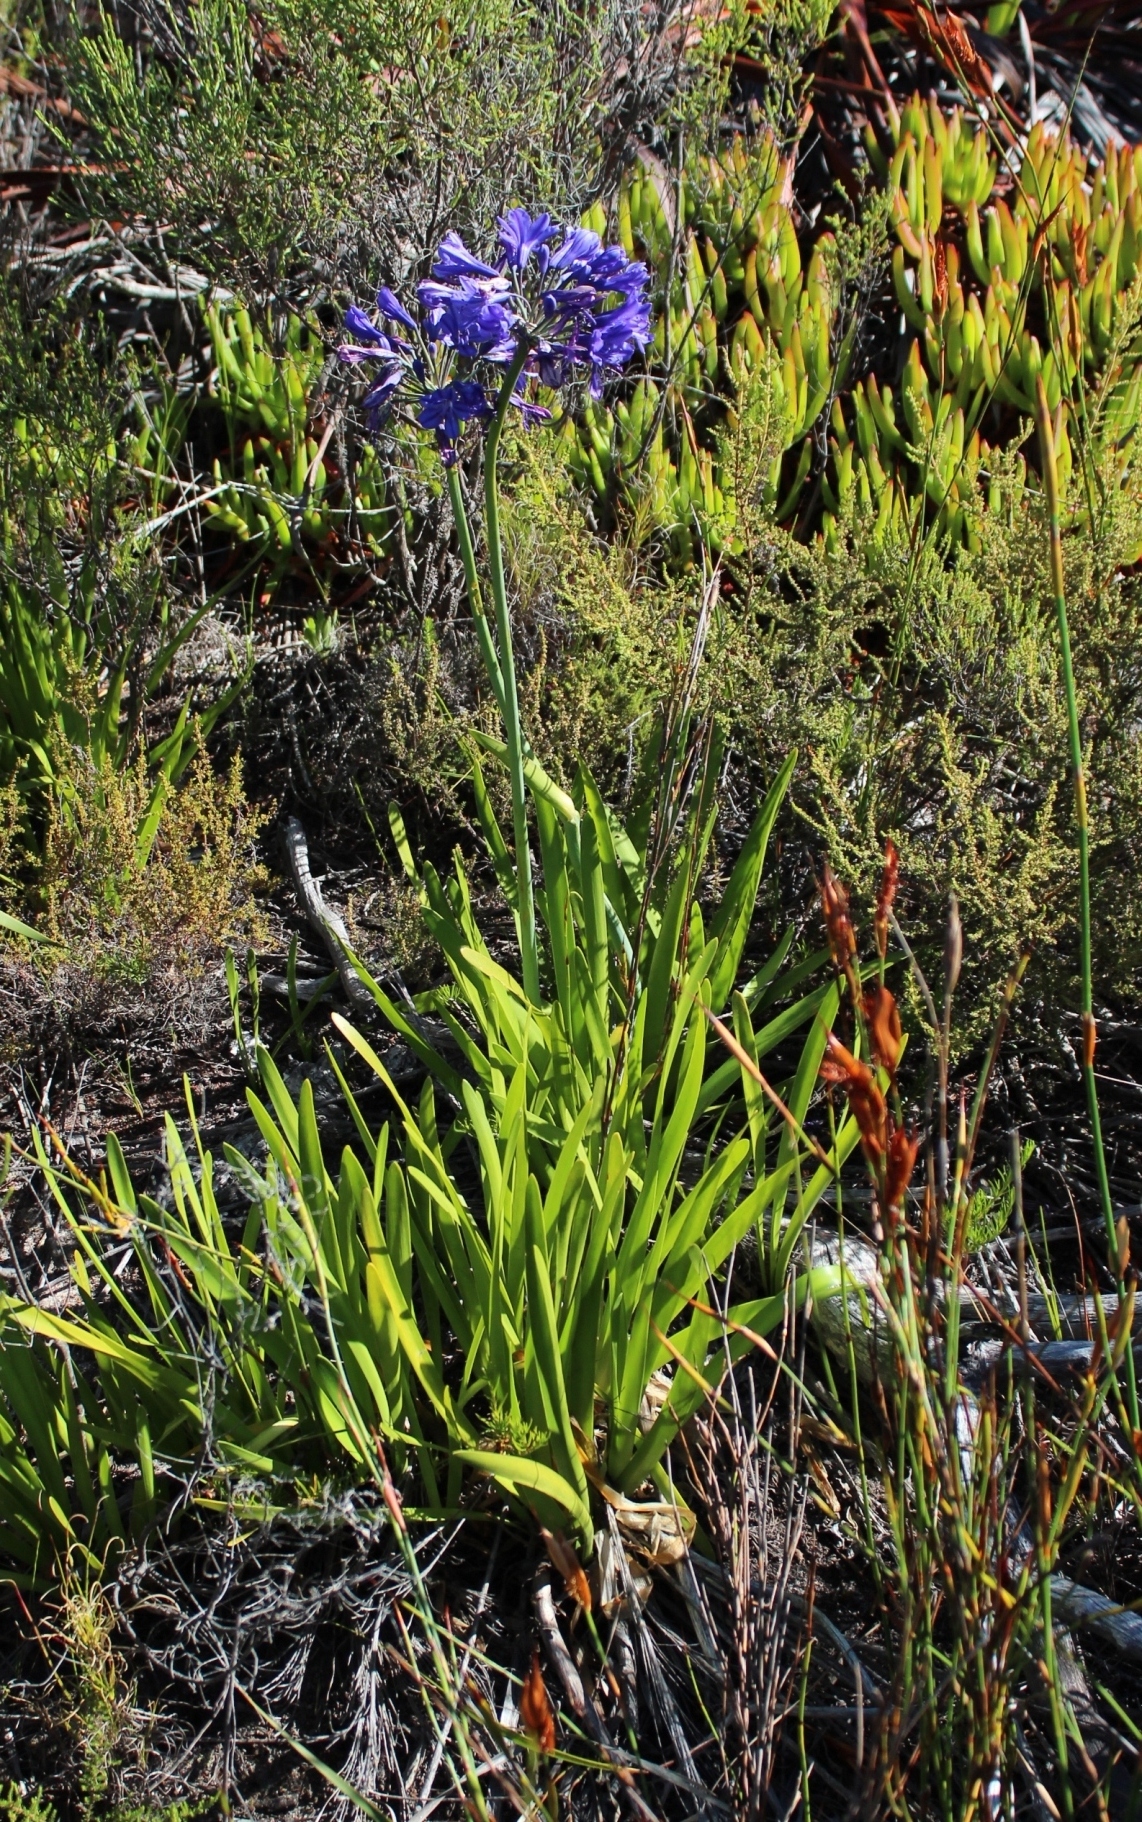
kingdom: Plantae
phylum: Tracheophyta
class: Liliopsida
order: Asparagales
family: Amaryllidaceae
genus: Agapanthus
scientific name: Agapanthus
